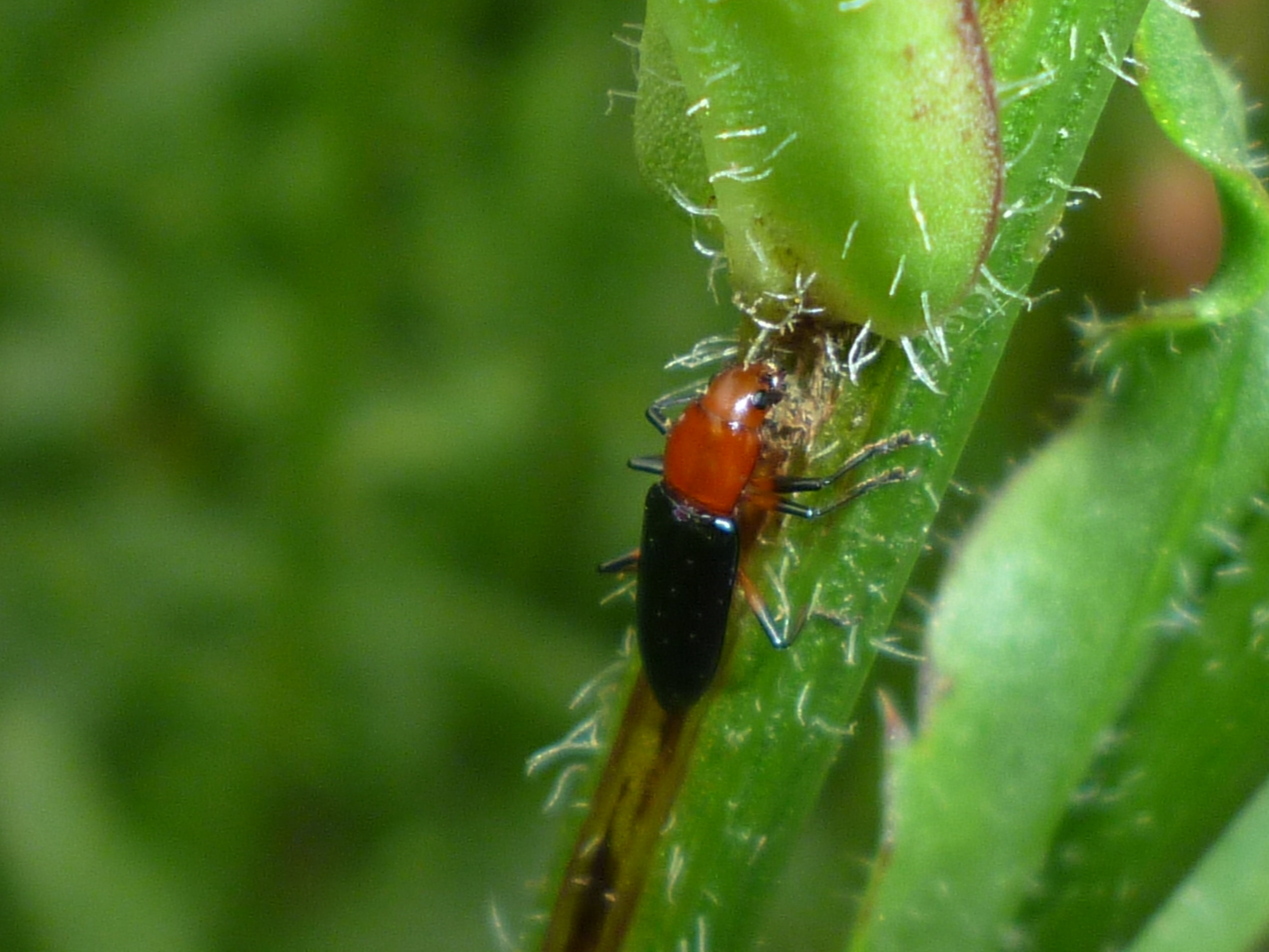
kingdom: Animalia
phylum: Arthropoda
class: Insecta
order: Coleoptera
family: Erotylidae
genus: Languria
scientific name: Languria mozardi
